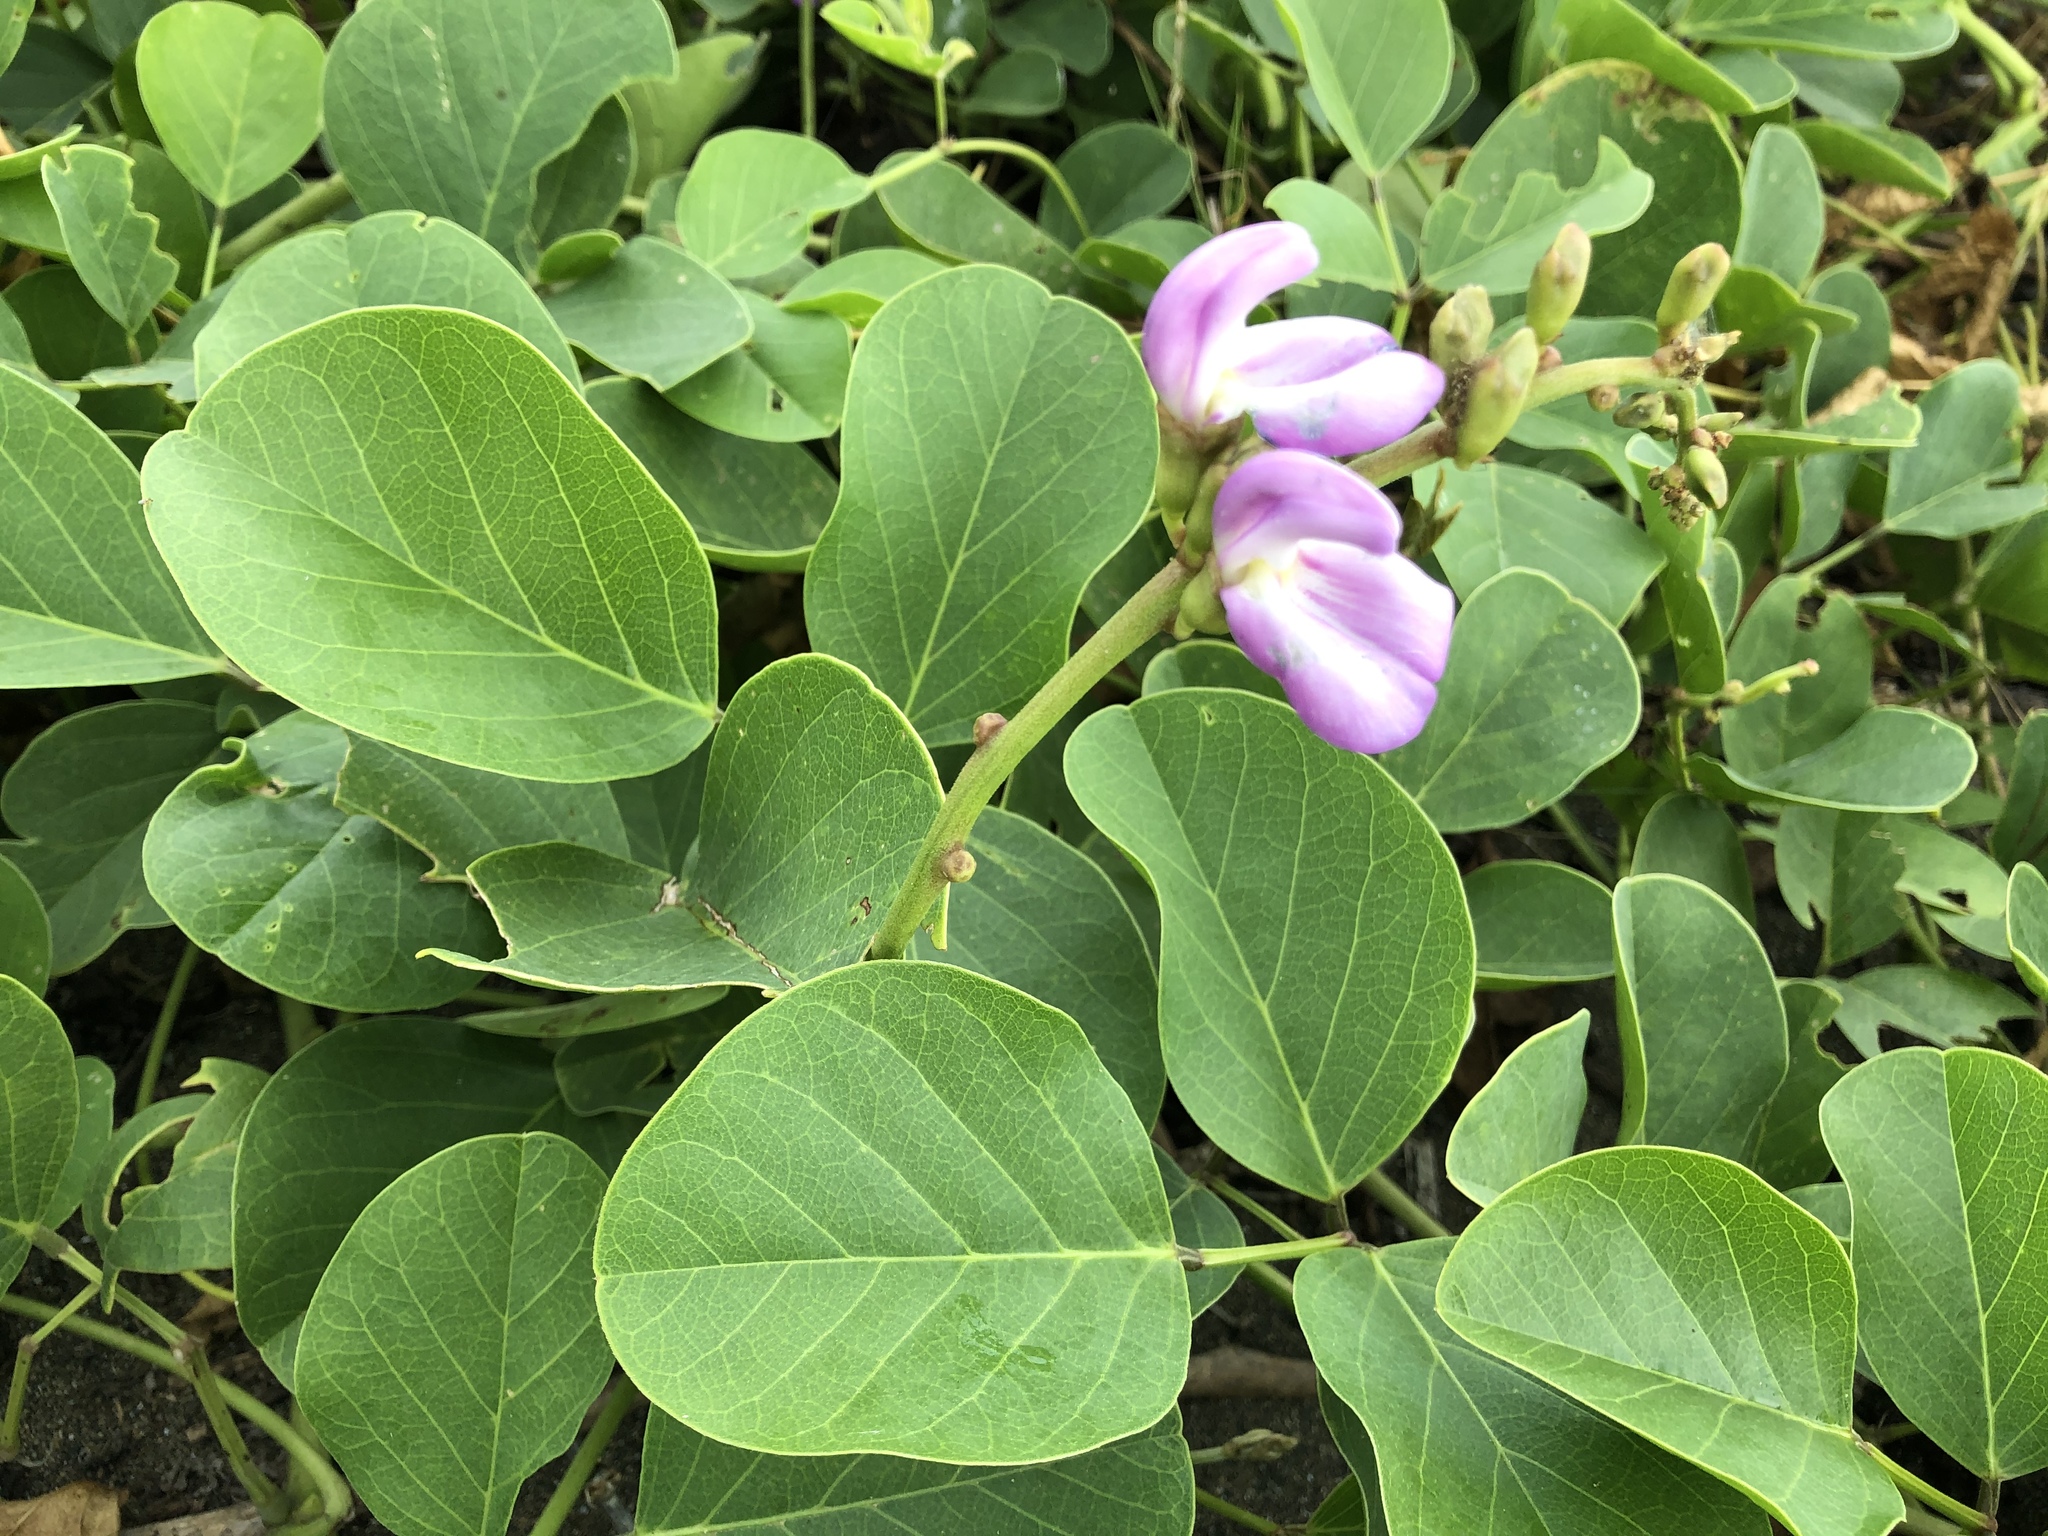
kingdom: Plantae
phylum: Tracheophyta
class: Magnoliopsida
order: Fabales
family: Fabaceae
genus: Canavalia
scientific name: Canavalia rosea
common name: Beach-bean
